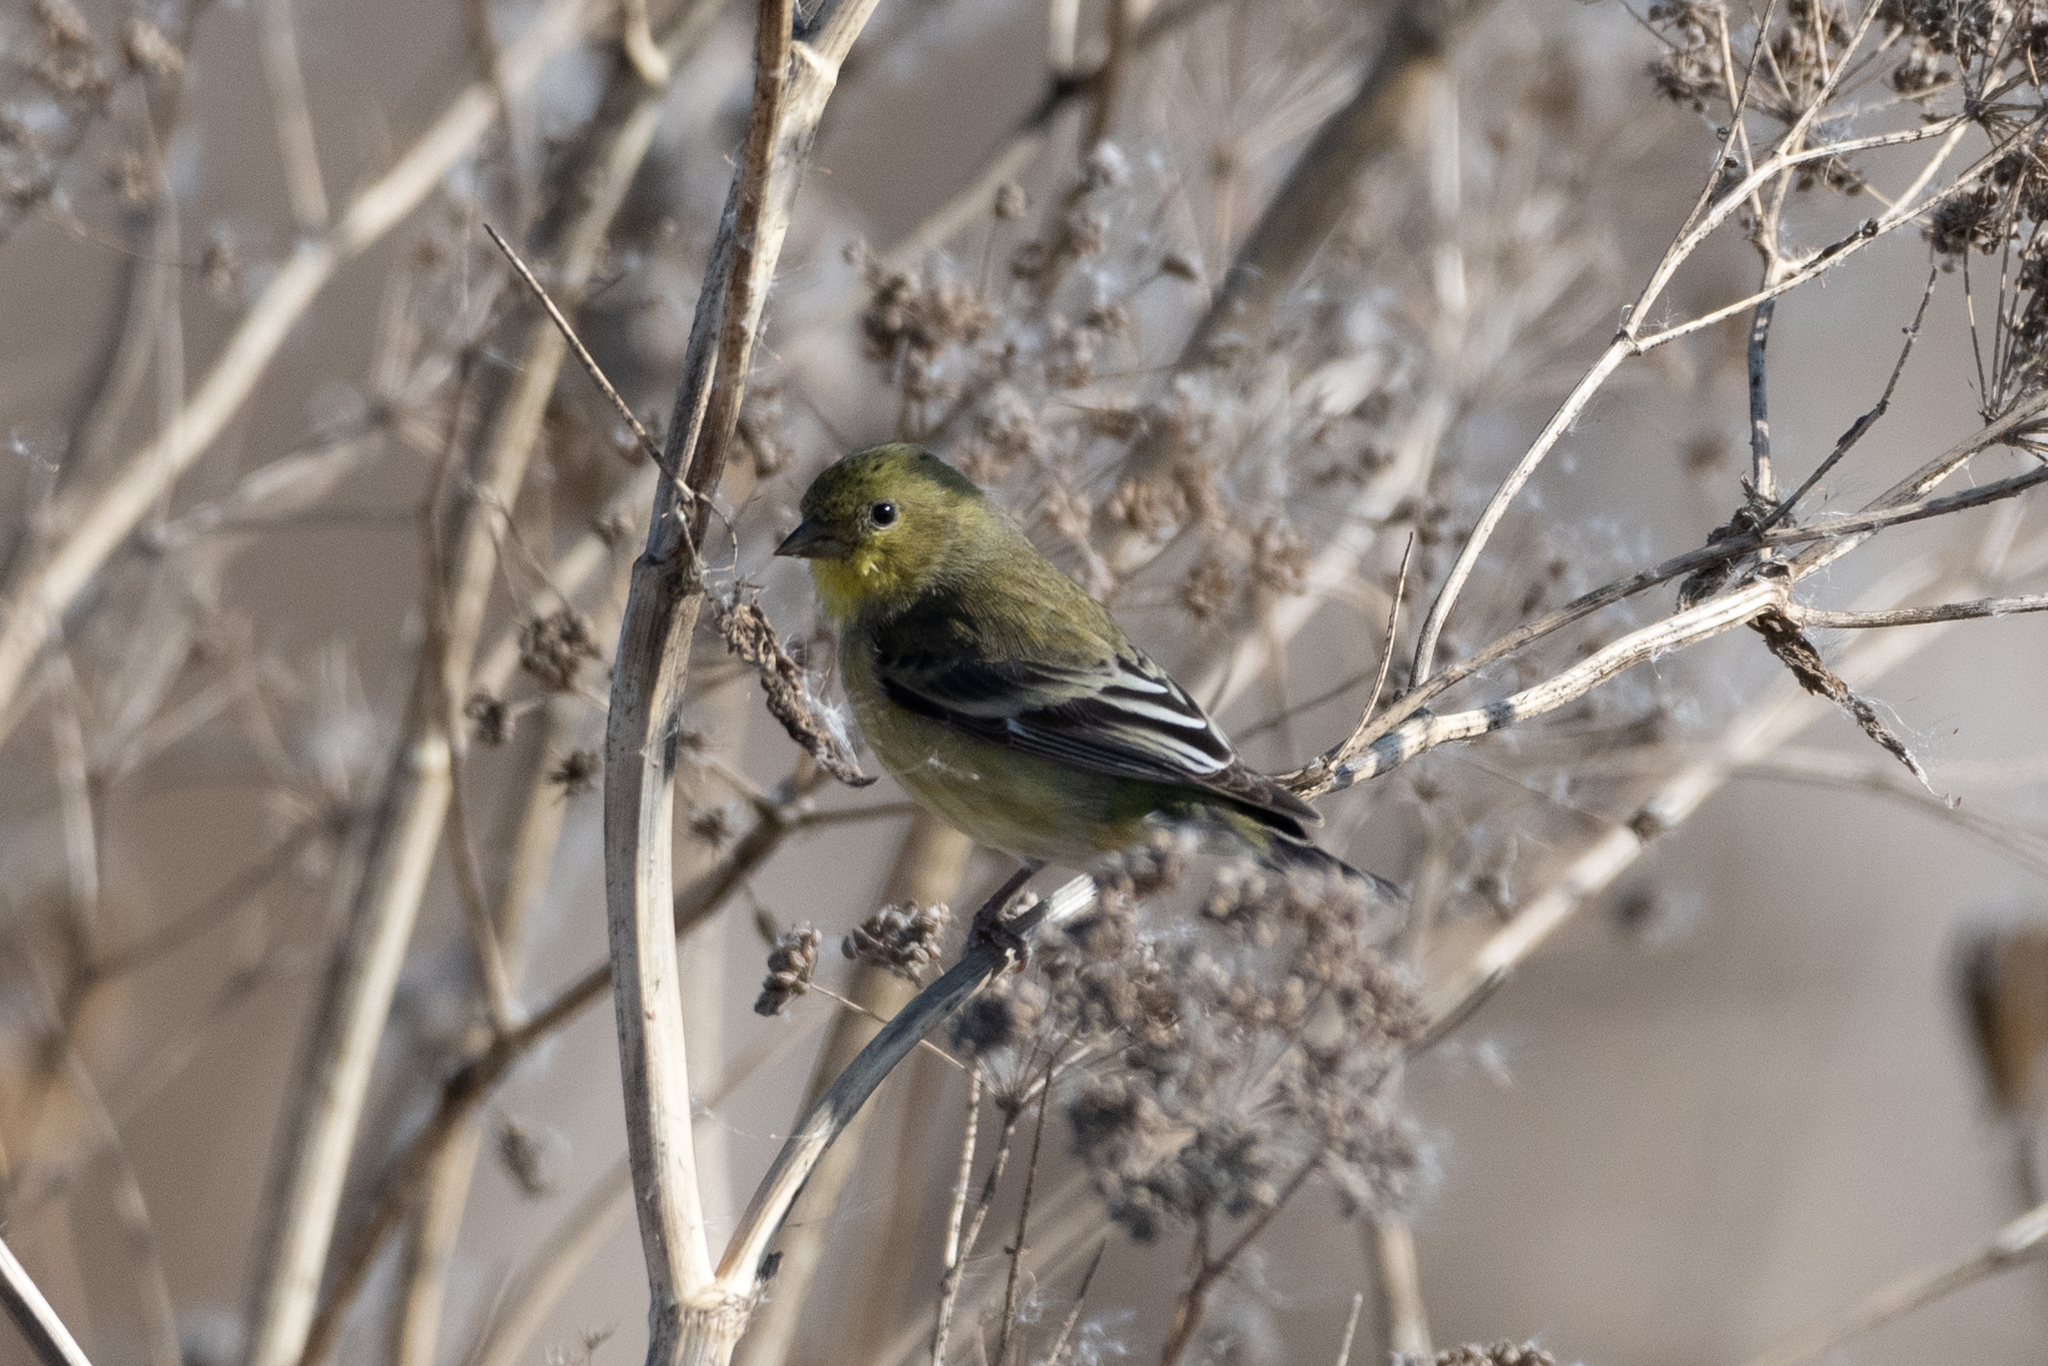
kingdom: Animalia
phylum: Chordata
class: Aves
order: Passeriformes
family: Fringillidae
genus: Spinus
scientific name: Spinus psaltria
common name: Lesser goldfinch
